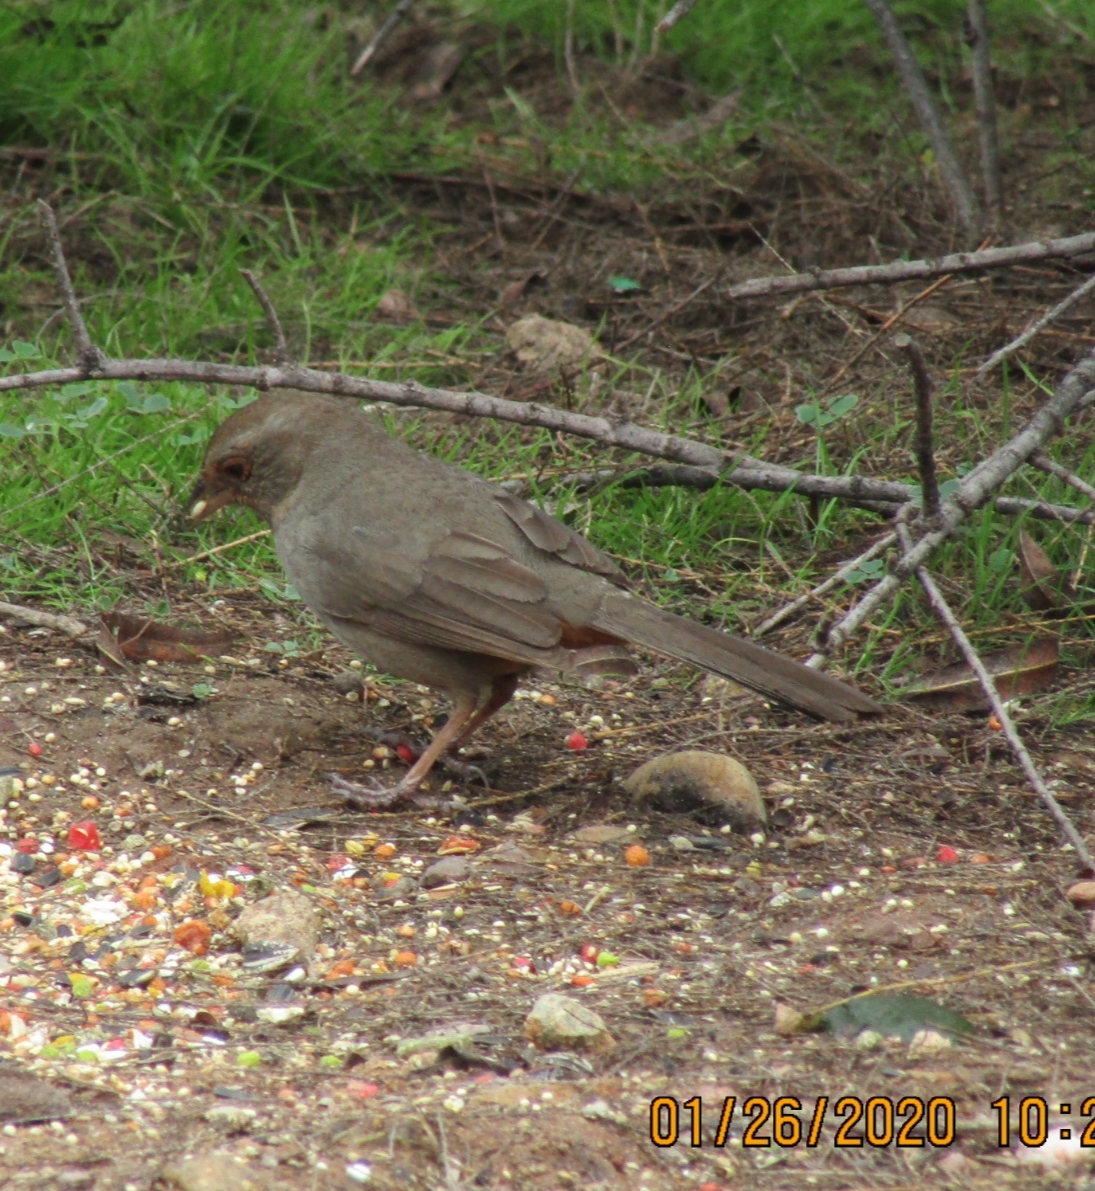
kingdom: Animalia
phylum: Chordata
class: Aves
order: Passeriformes
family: Passerellidae
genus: Melozone
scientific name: Melozone crissalis
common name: California towhee
